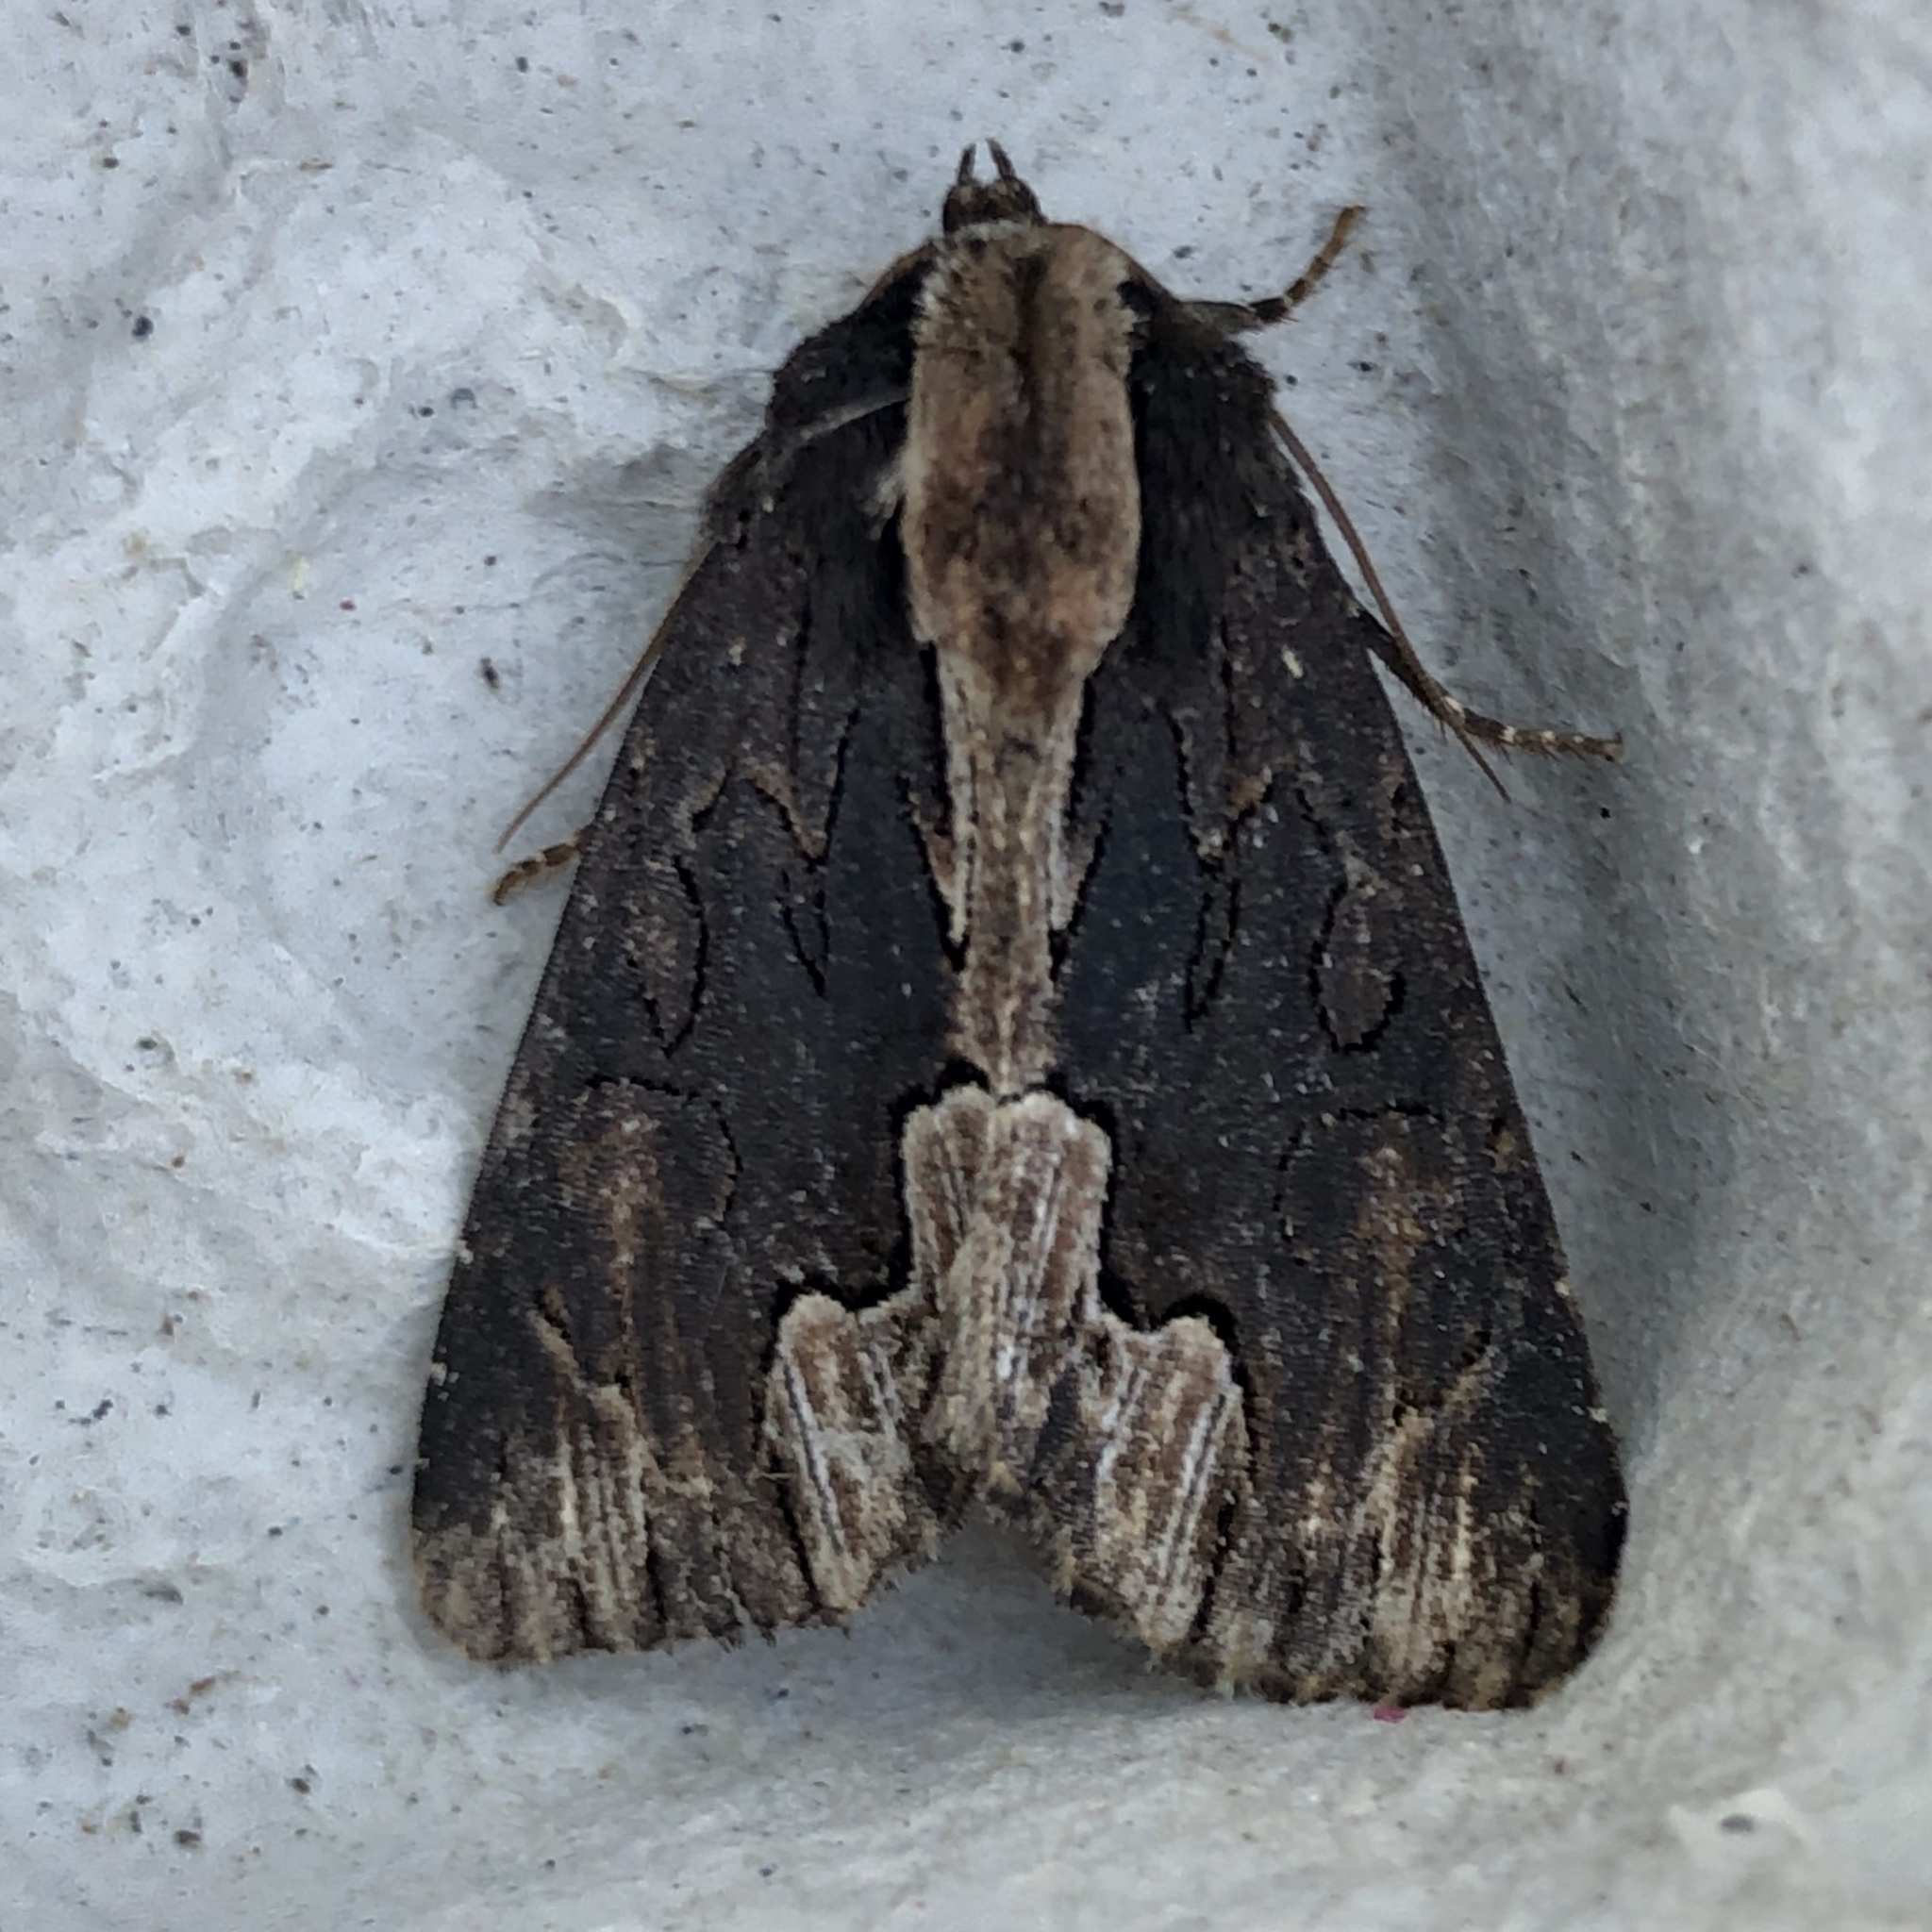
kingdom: Animalia
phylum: Arthropoda
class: Insecta
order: Lepidoptera
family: Noctuidae
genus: Dypterygia
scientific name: Dypterygia scabriuscula
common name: Bird's wing
